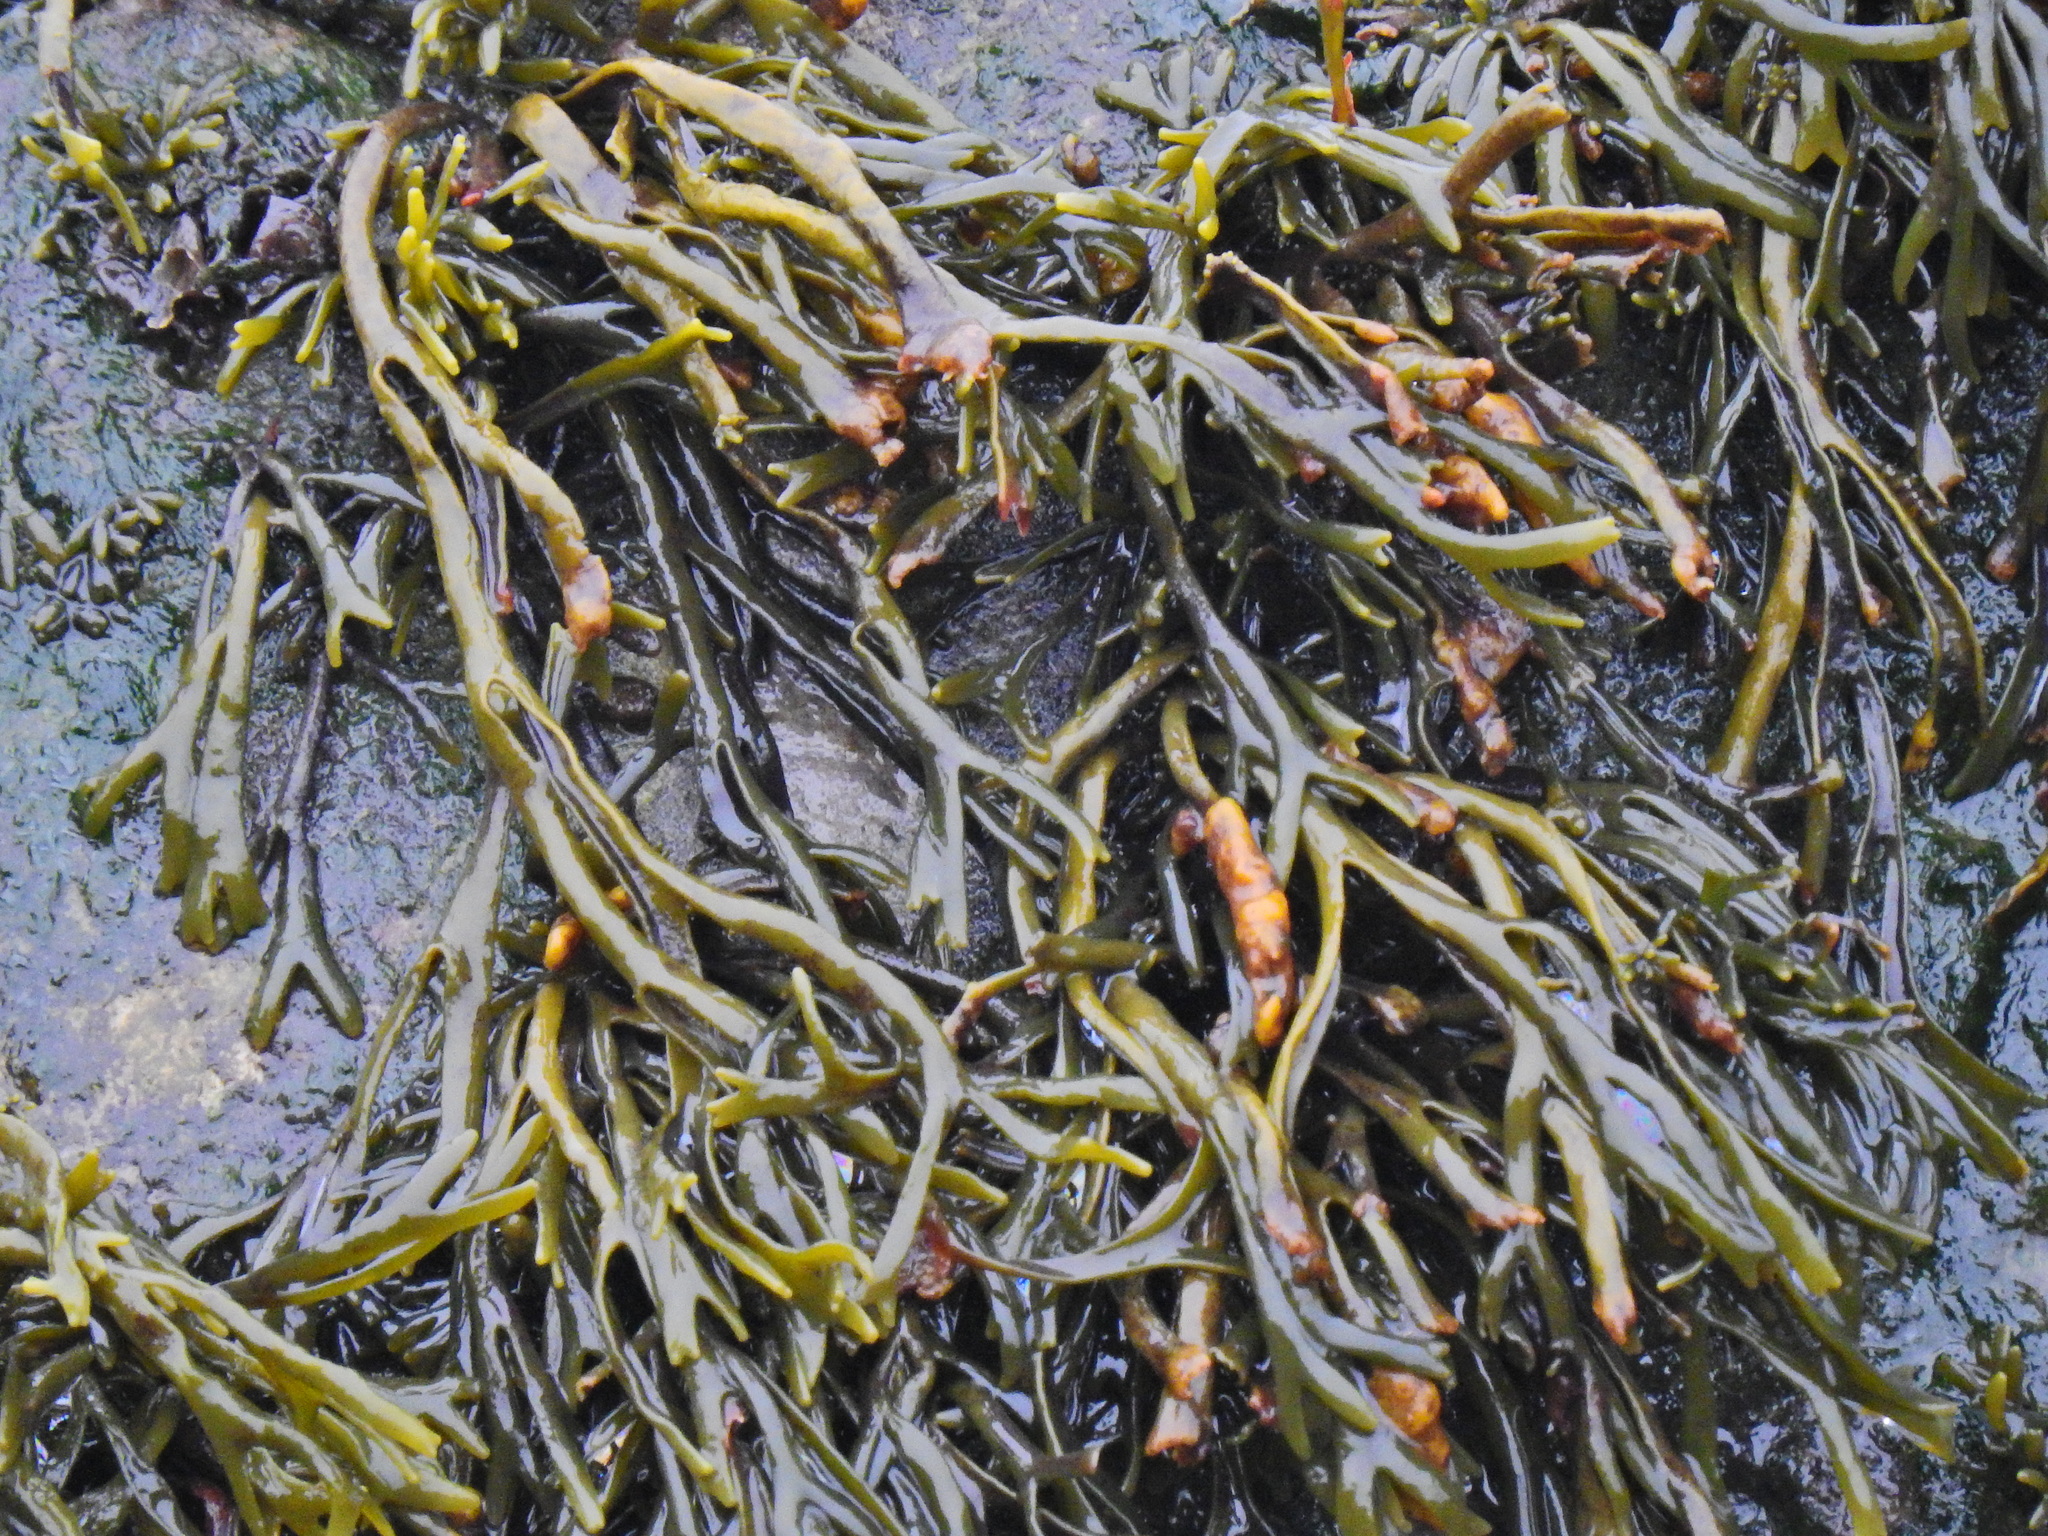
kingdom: Chromista
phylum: Ochrophyta
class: Phaeophyceae
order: Fucales
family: Fucaceae
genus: Pelvetia
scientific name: Pelvetia canaliculata
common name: Channelled wrack
